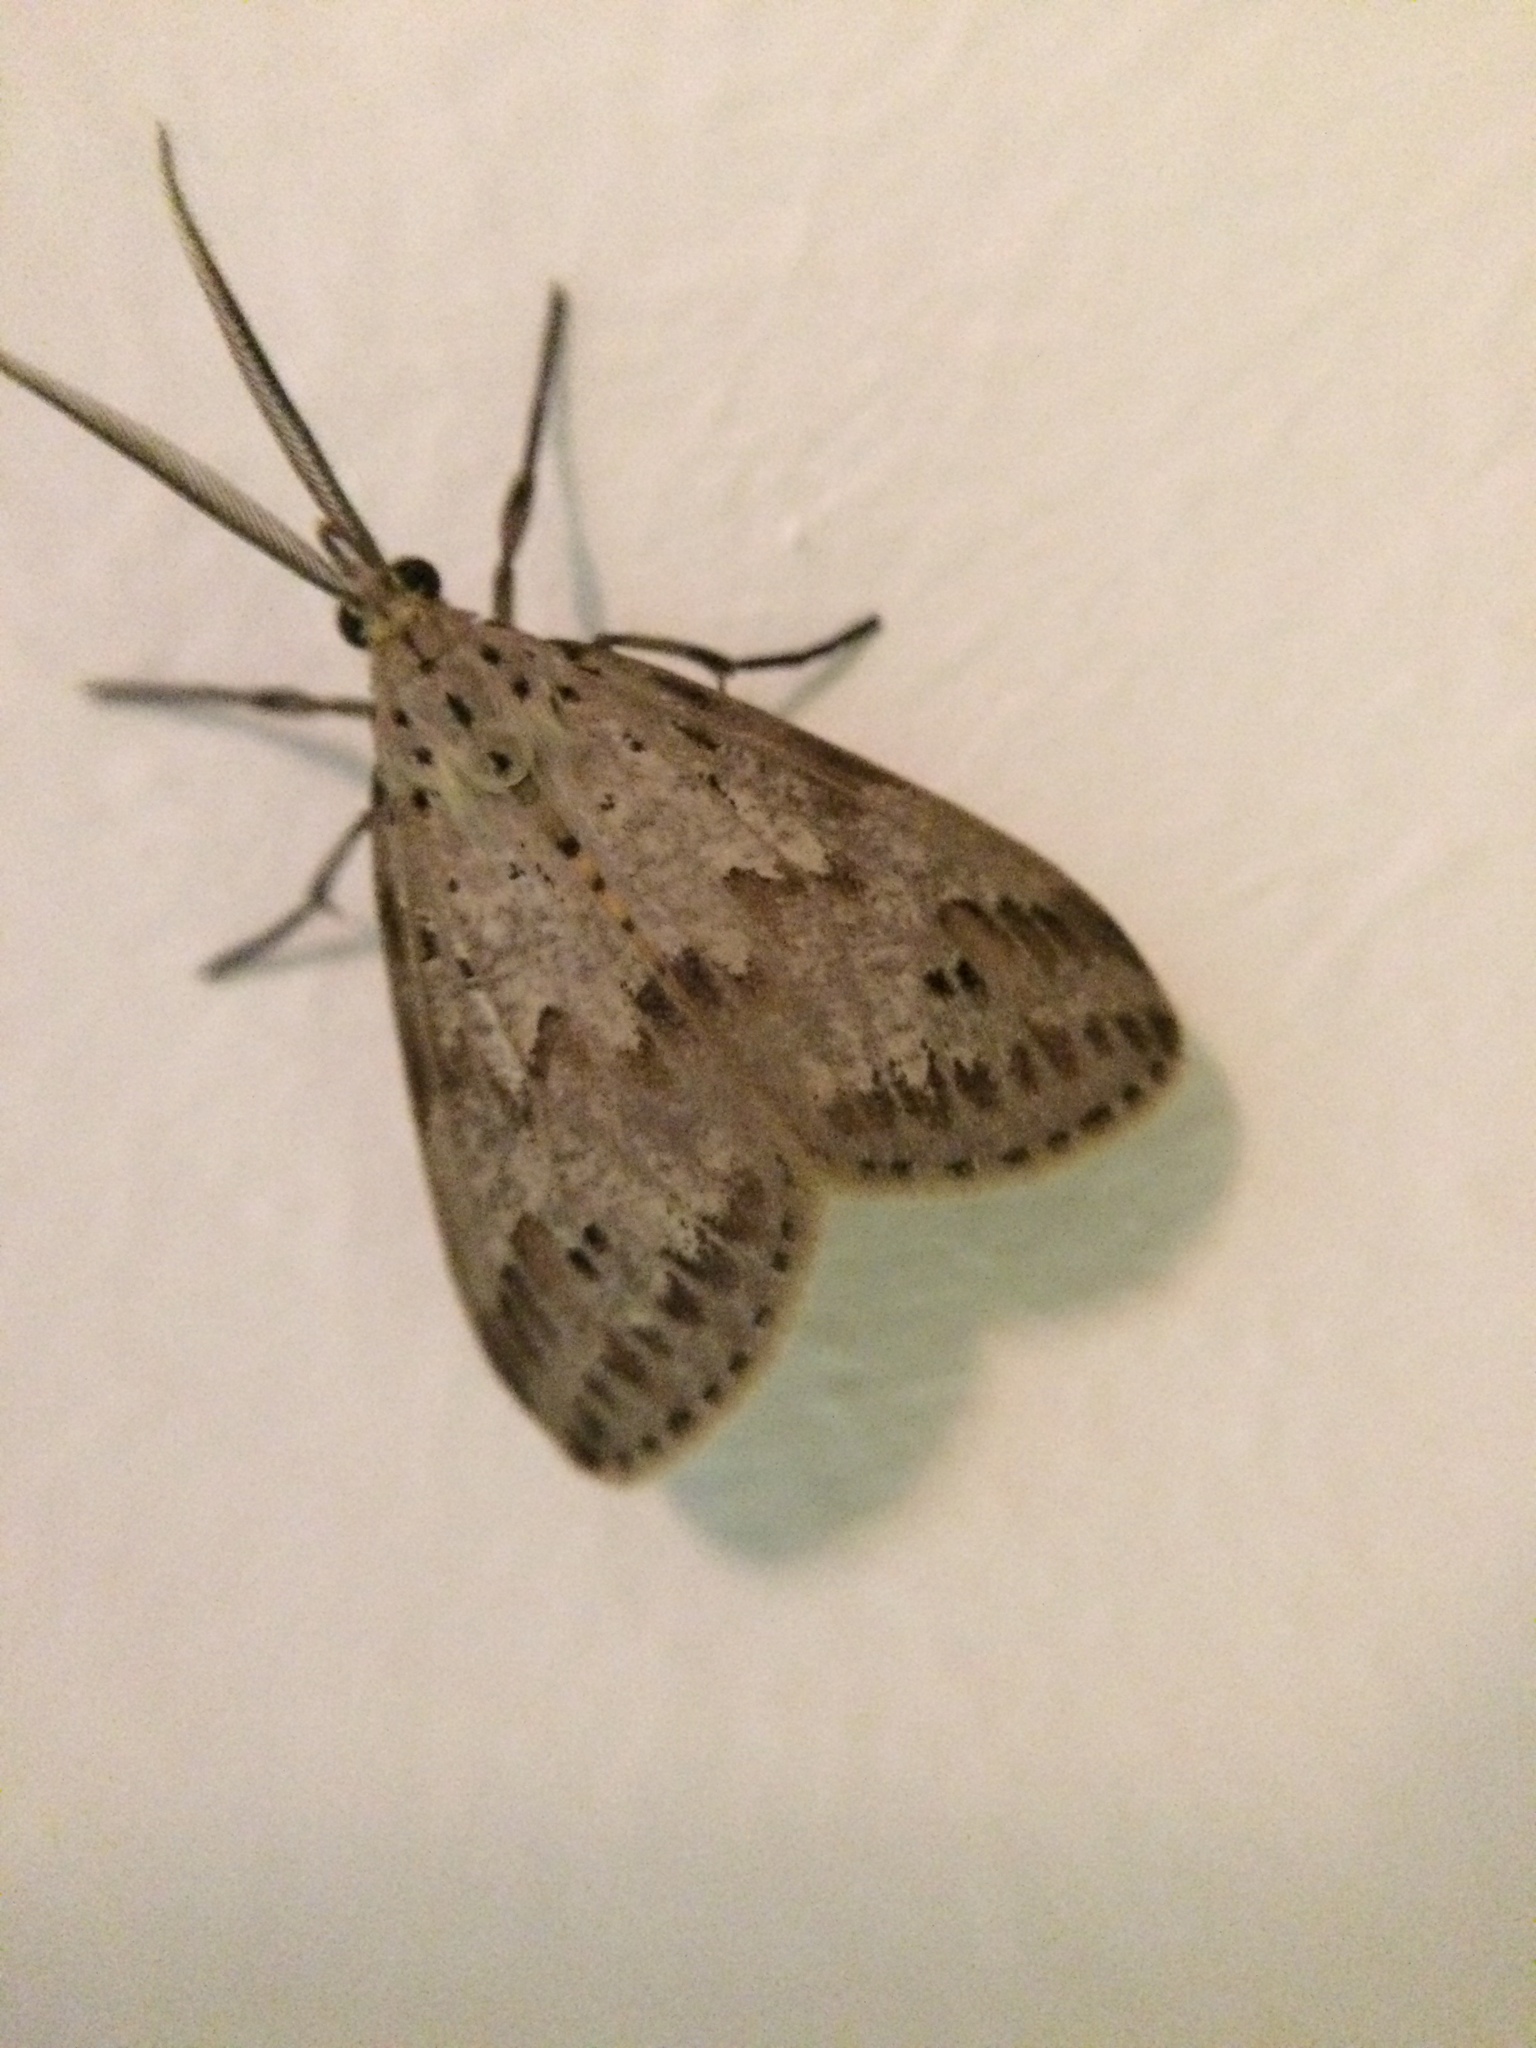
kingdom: Animalia
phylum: Arthropoda
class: Insecta
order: Lepidoptera
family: Erebidae
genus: Galtara
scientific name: Galtara rostrata
